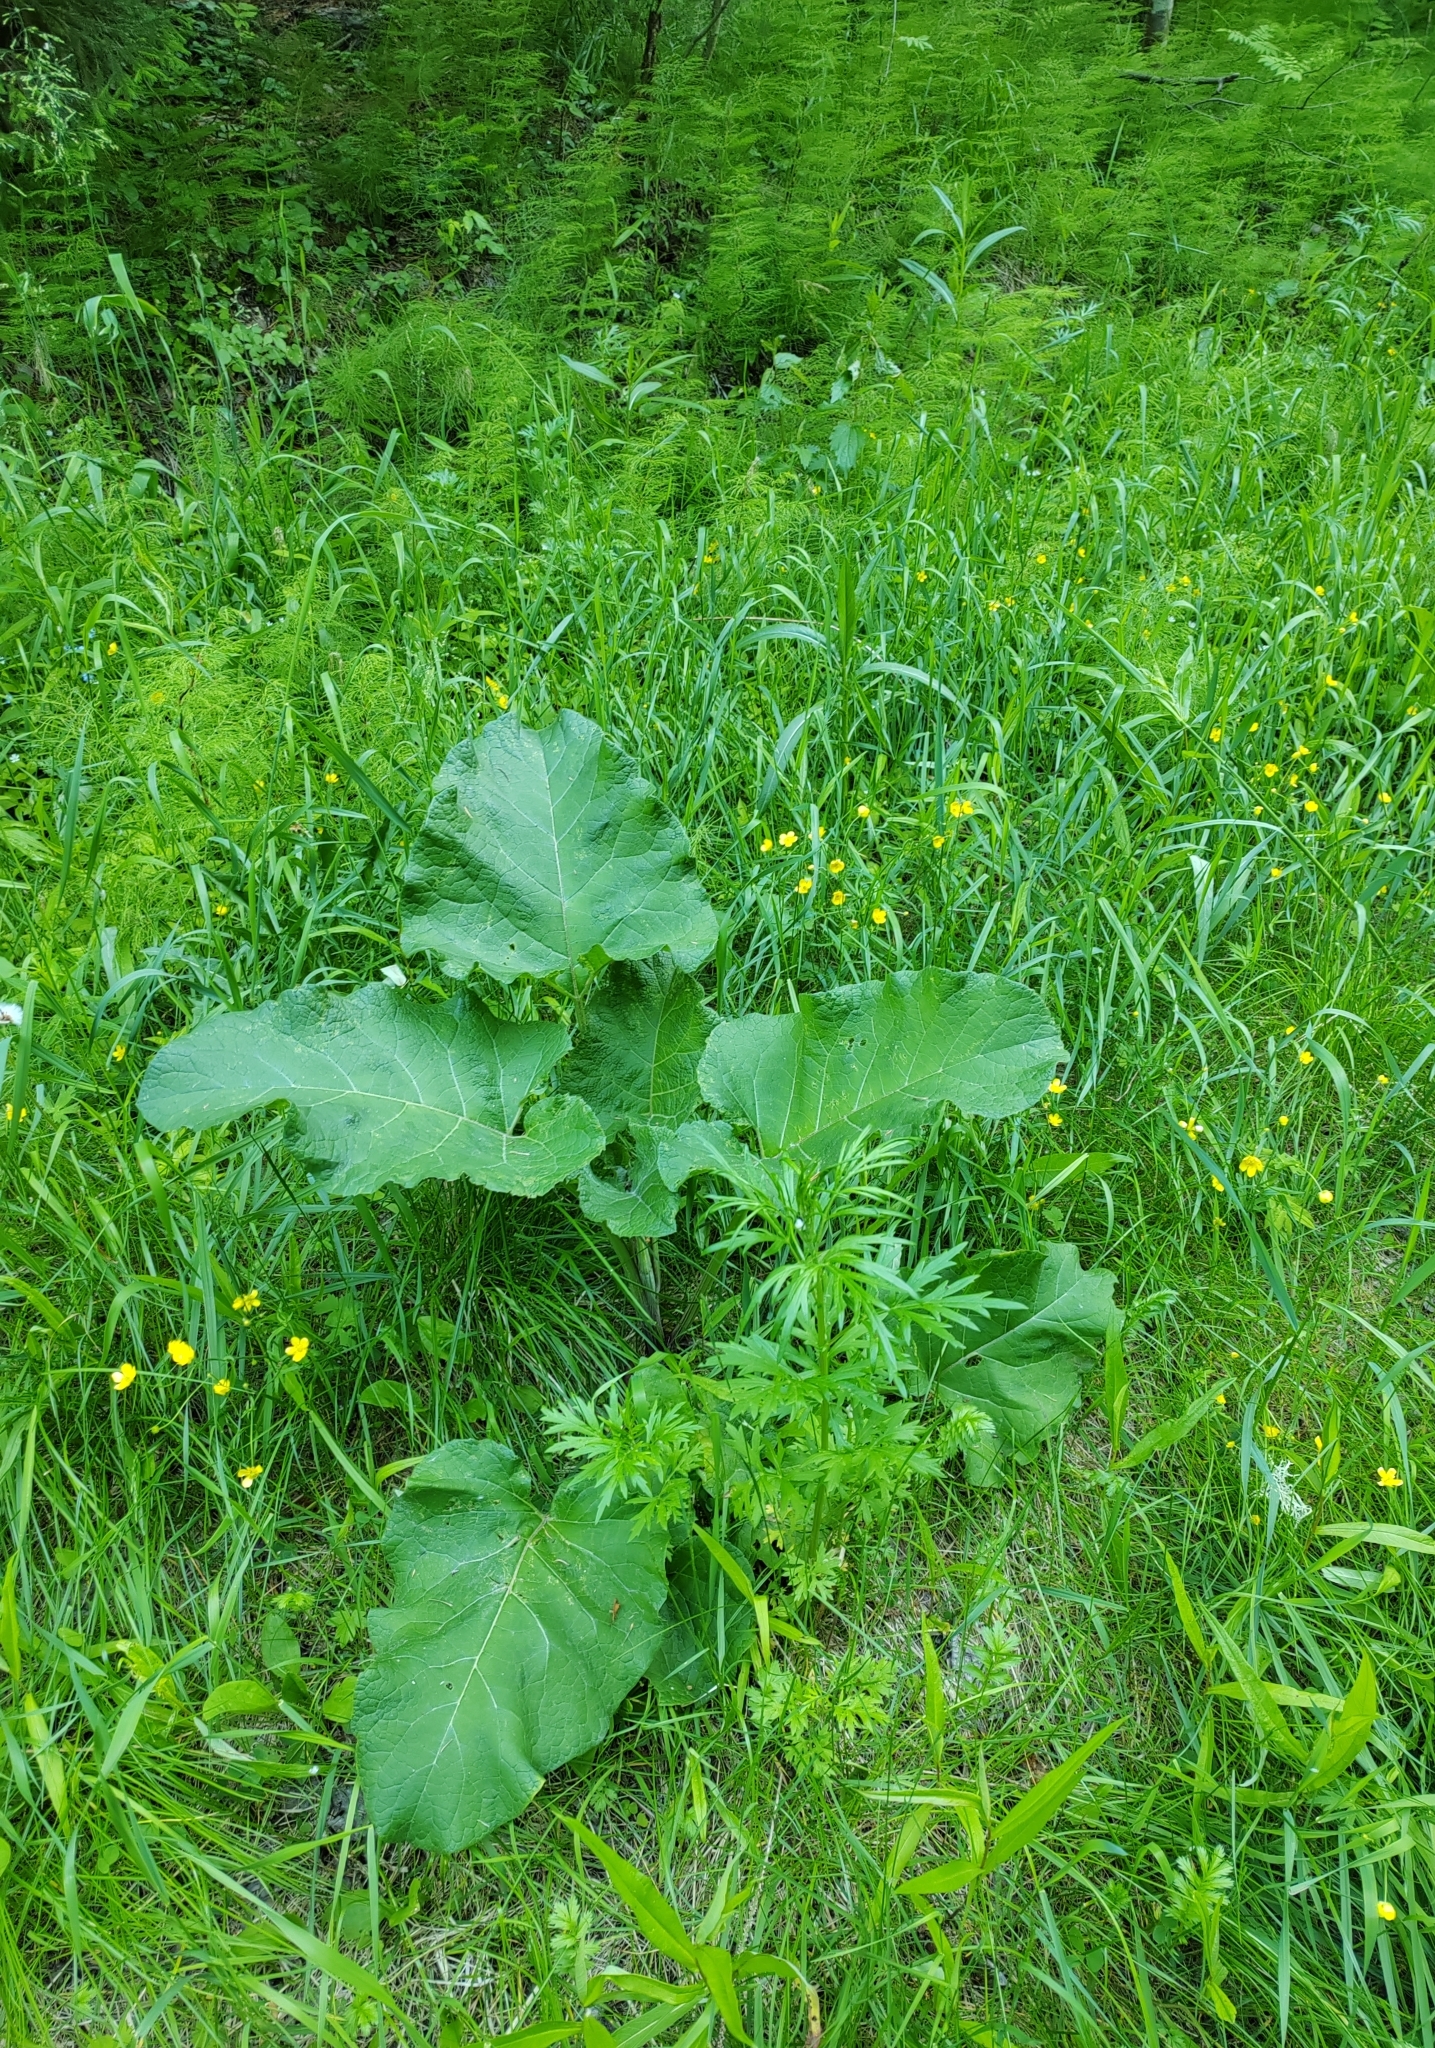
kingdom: Plantae
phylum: Tracheophyta
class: Magnoliopsida
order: Asterales
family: Asteraceae
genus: Arctium
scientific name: Arctium tomentosum
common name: Woolly burdock
